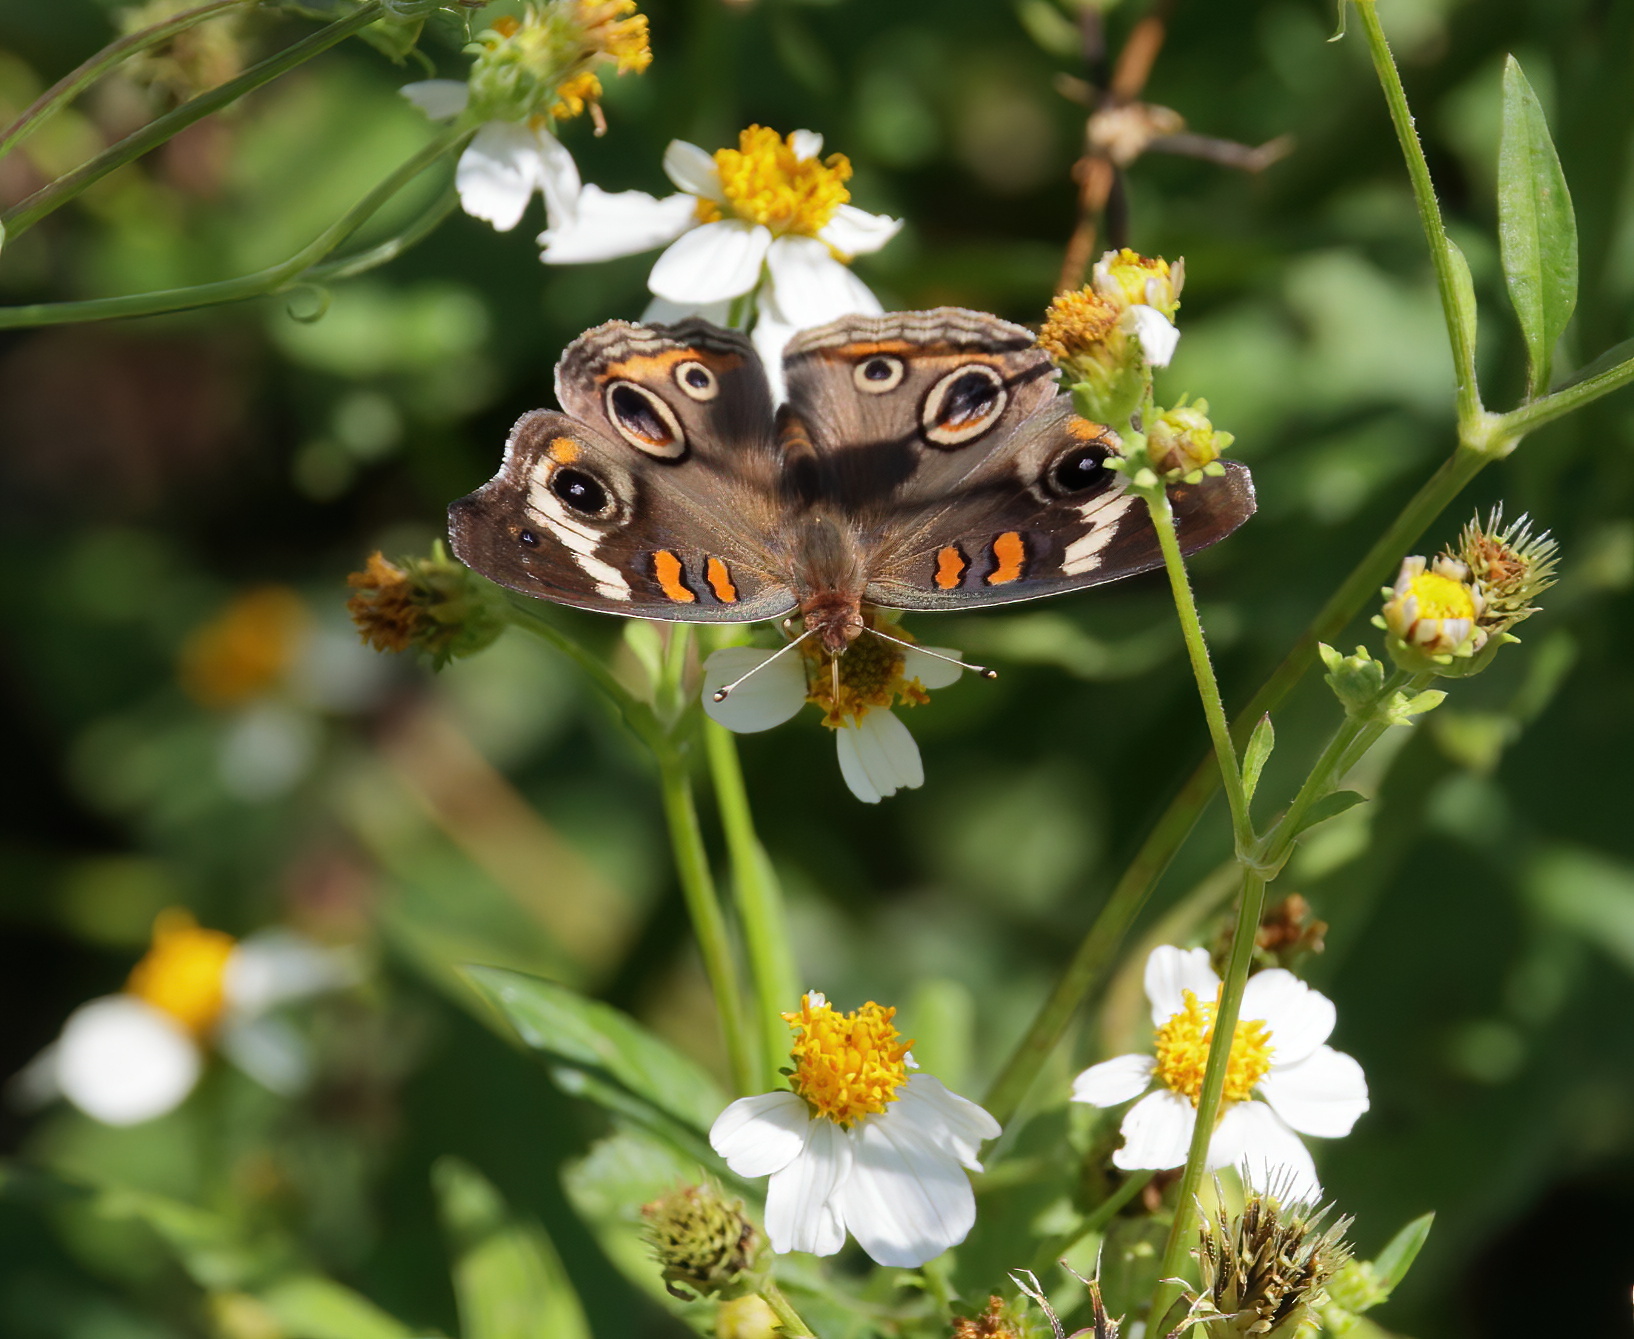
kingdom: Animalia
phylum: Arthropoda
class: Insecta
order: Lepidoptera
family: Nymphalidae
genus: Junonia
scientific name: Junonia coenia
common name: Common buckeye
